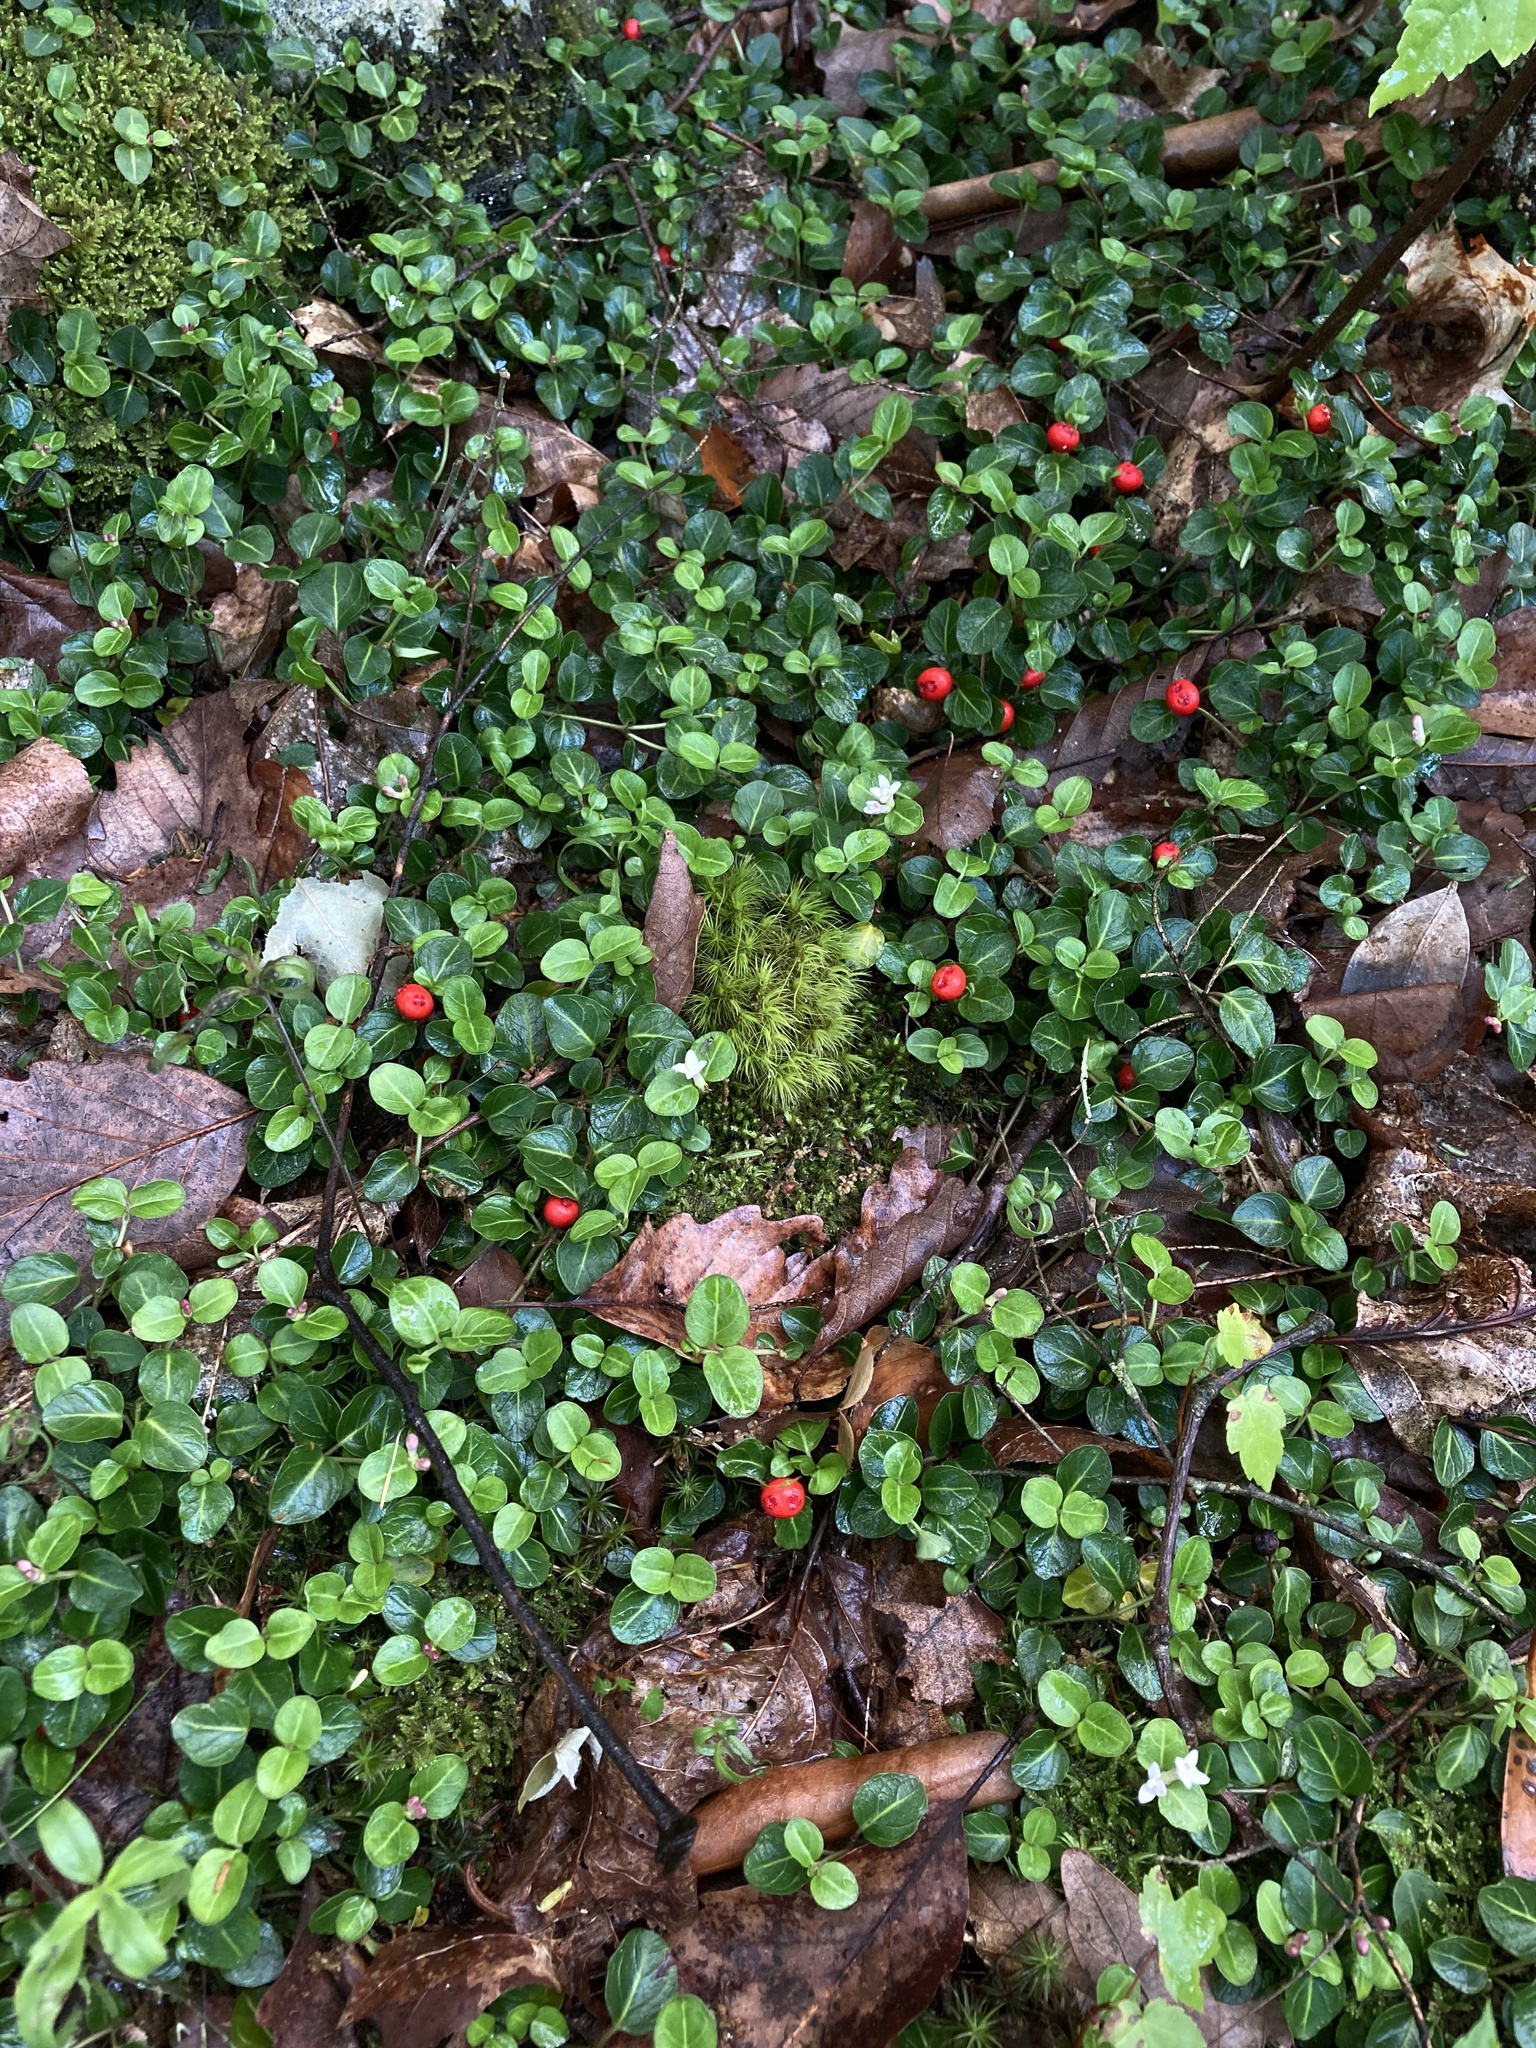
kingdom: Plantae
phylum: Tracheophyta
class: Magnoliopsida
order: Gentianales
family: Rubiaceae
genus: Mitchella
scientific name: Mitchella repens
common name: Partridge-berry
